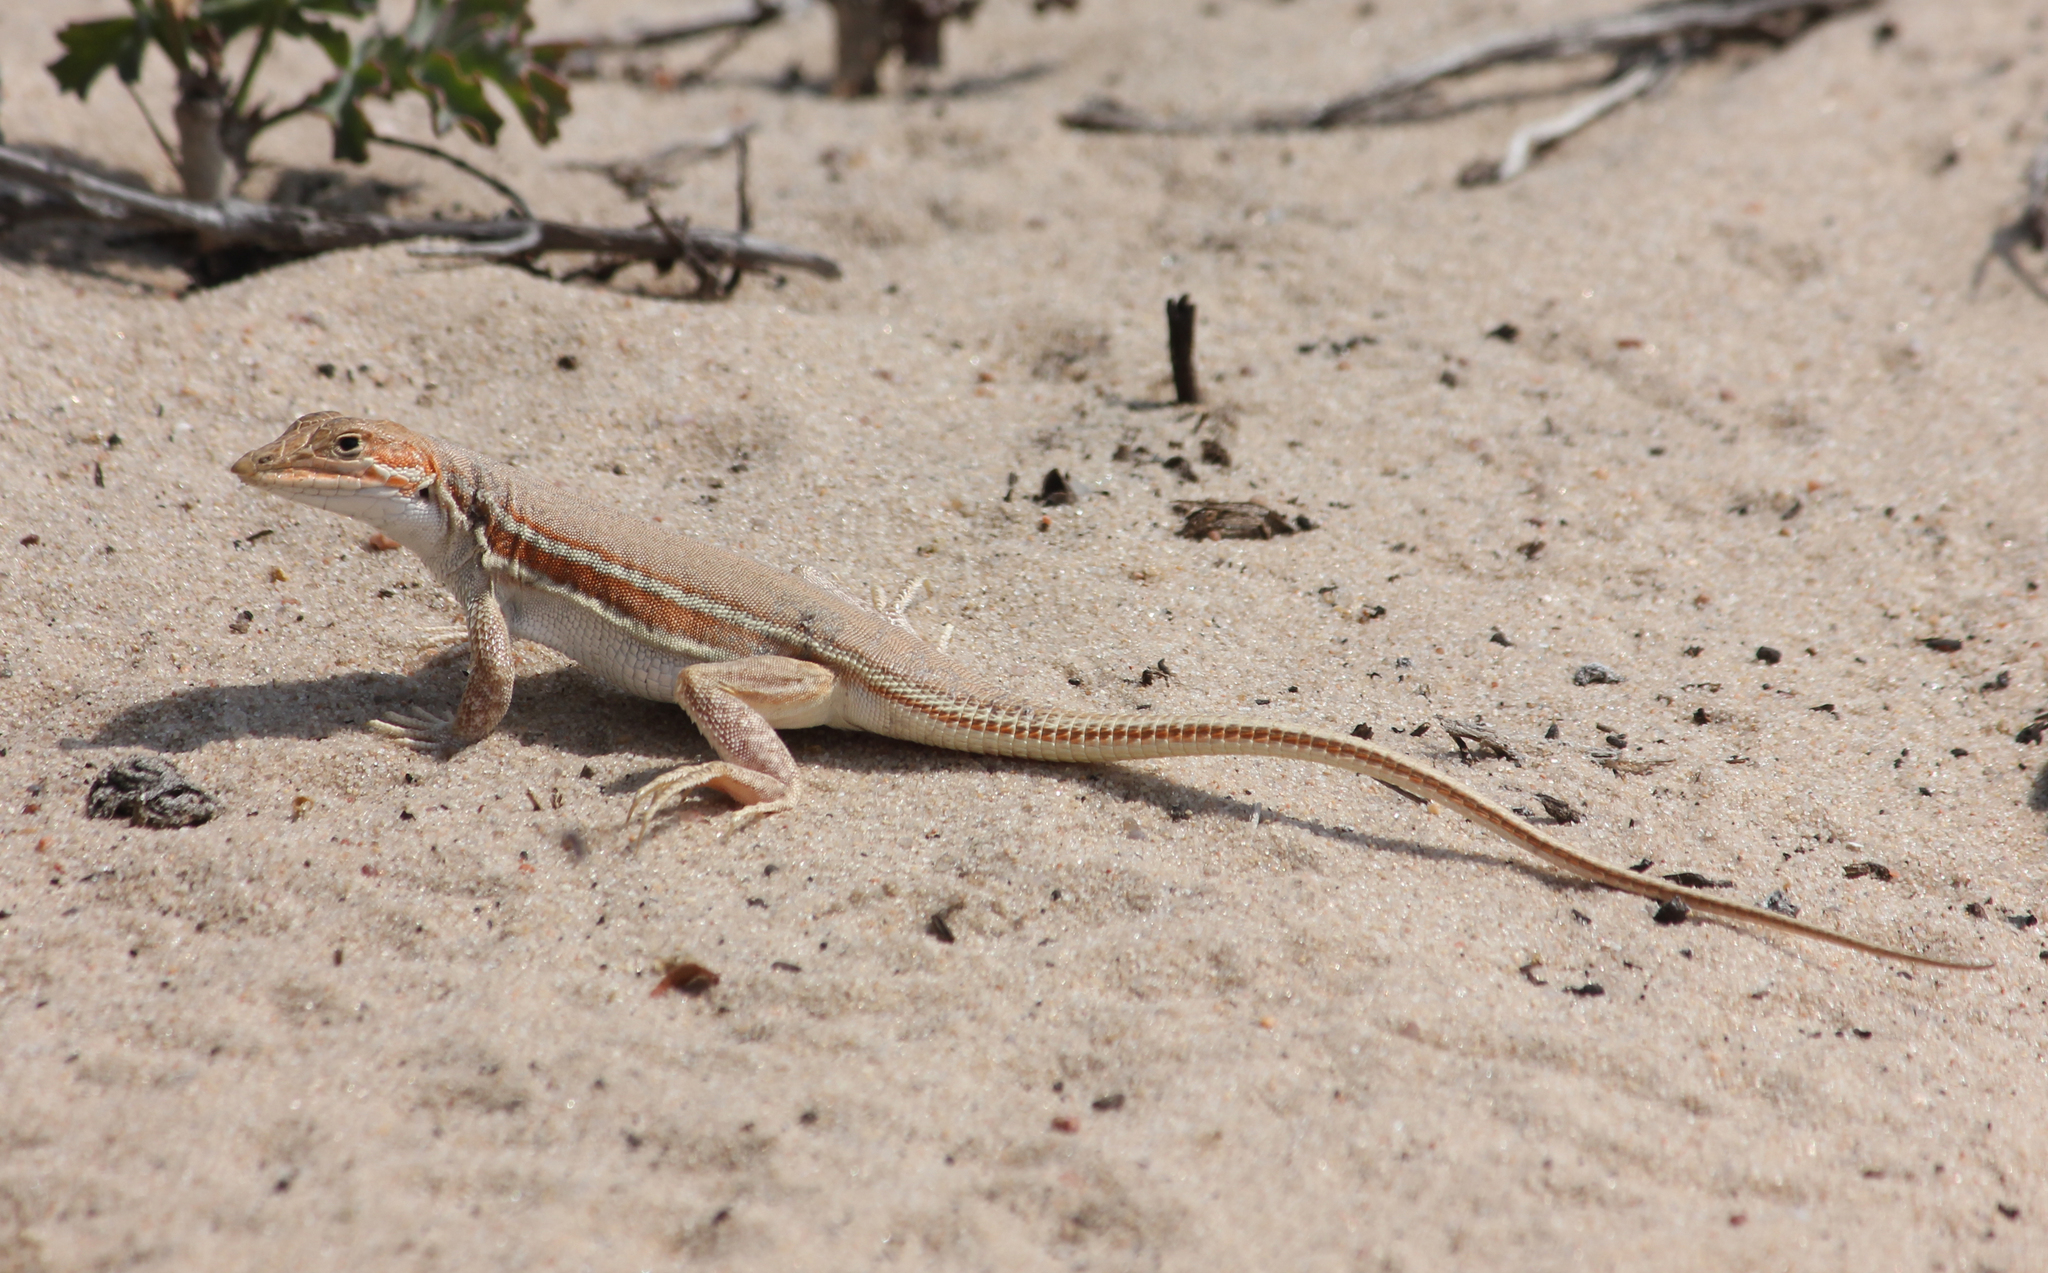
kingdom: Animalia
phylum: Chordata
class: Squamata
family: Lacertidae
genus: Meroles
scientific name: Meroles ctenodactylus
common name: Giant desert lizard
